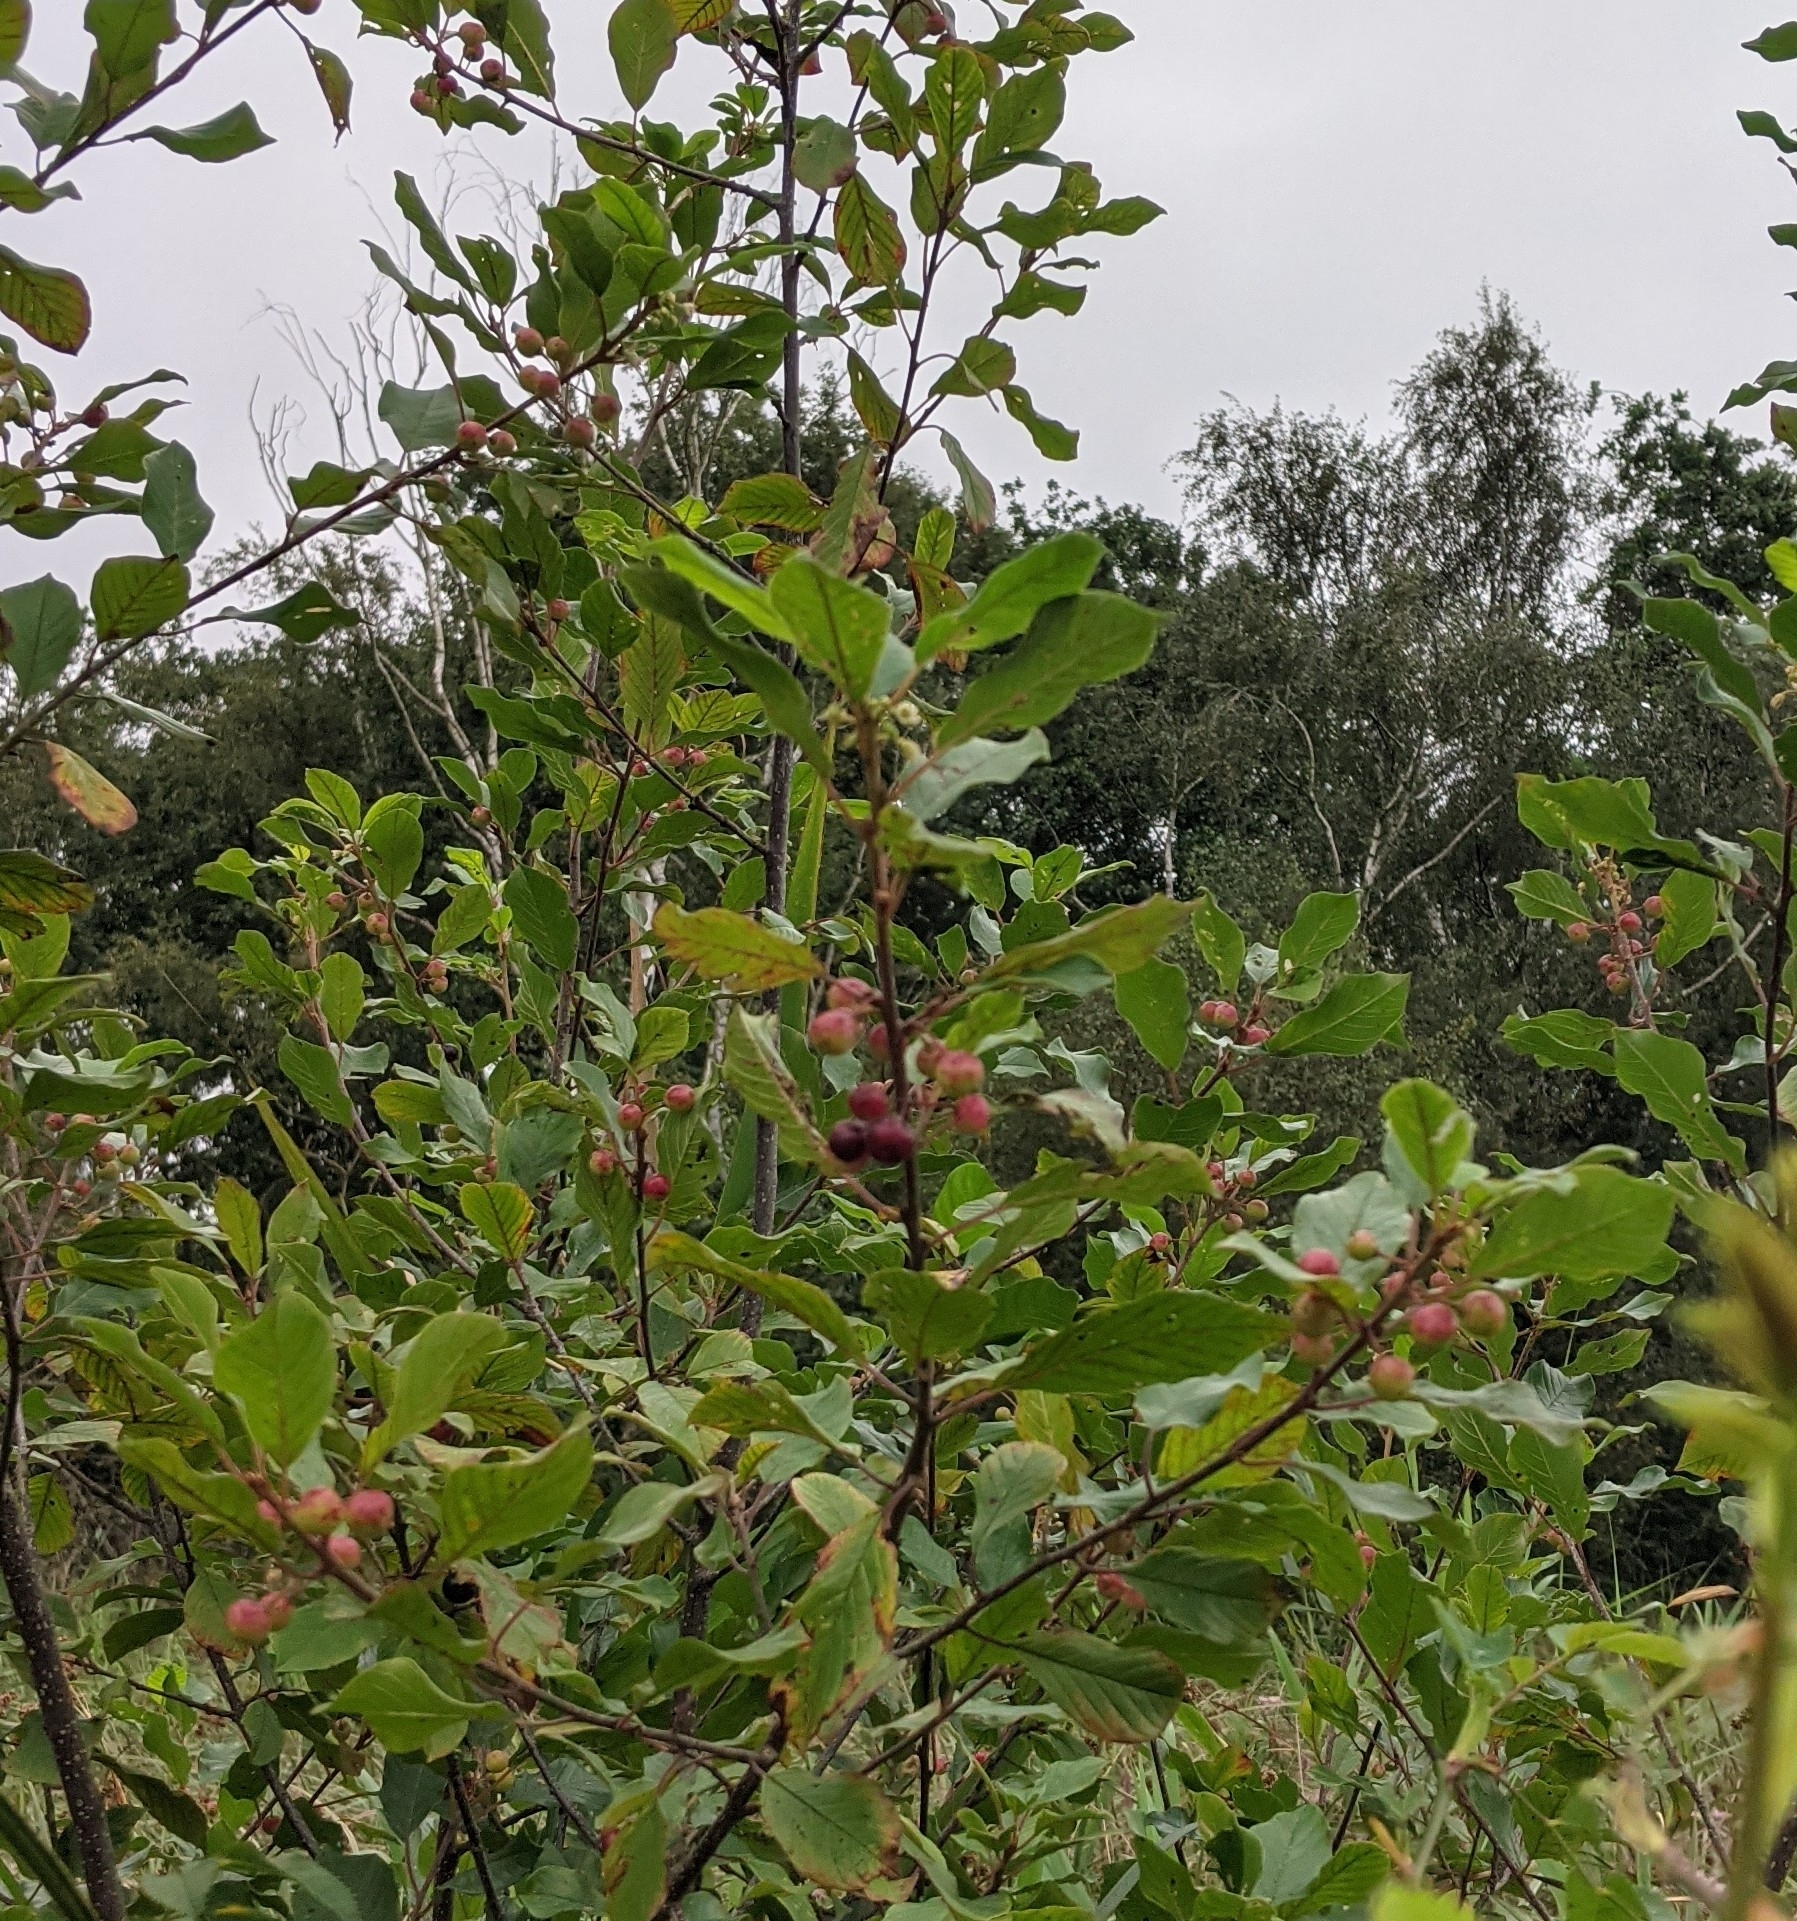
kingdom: Plantae
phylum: Tracheophyta
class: Magnoliopsida
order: Rosales
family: Rhamnaceae
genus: Frangula
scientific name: Frangula alnus
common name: Alder buckthorn
